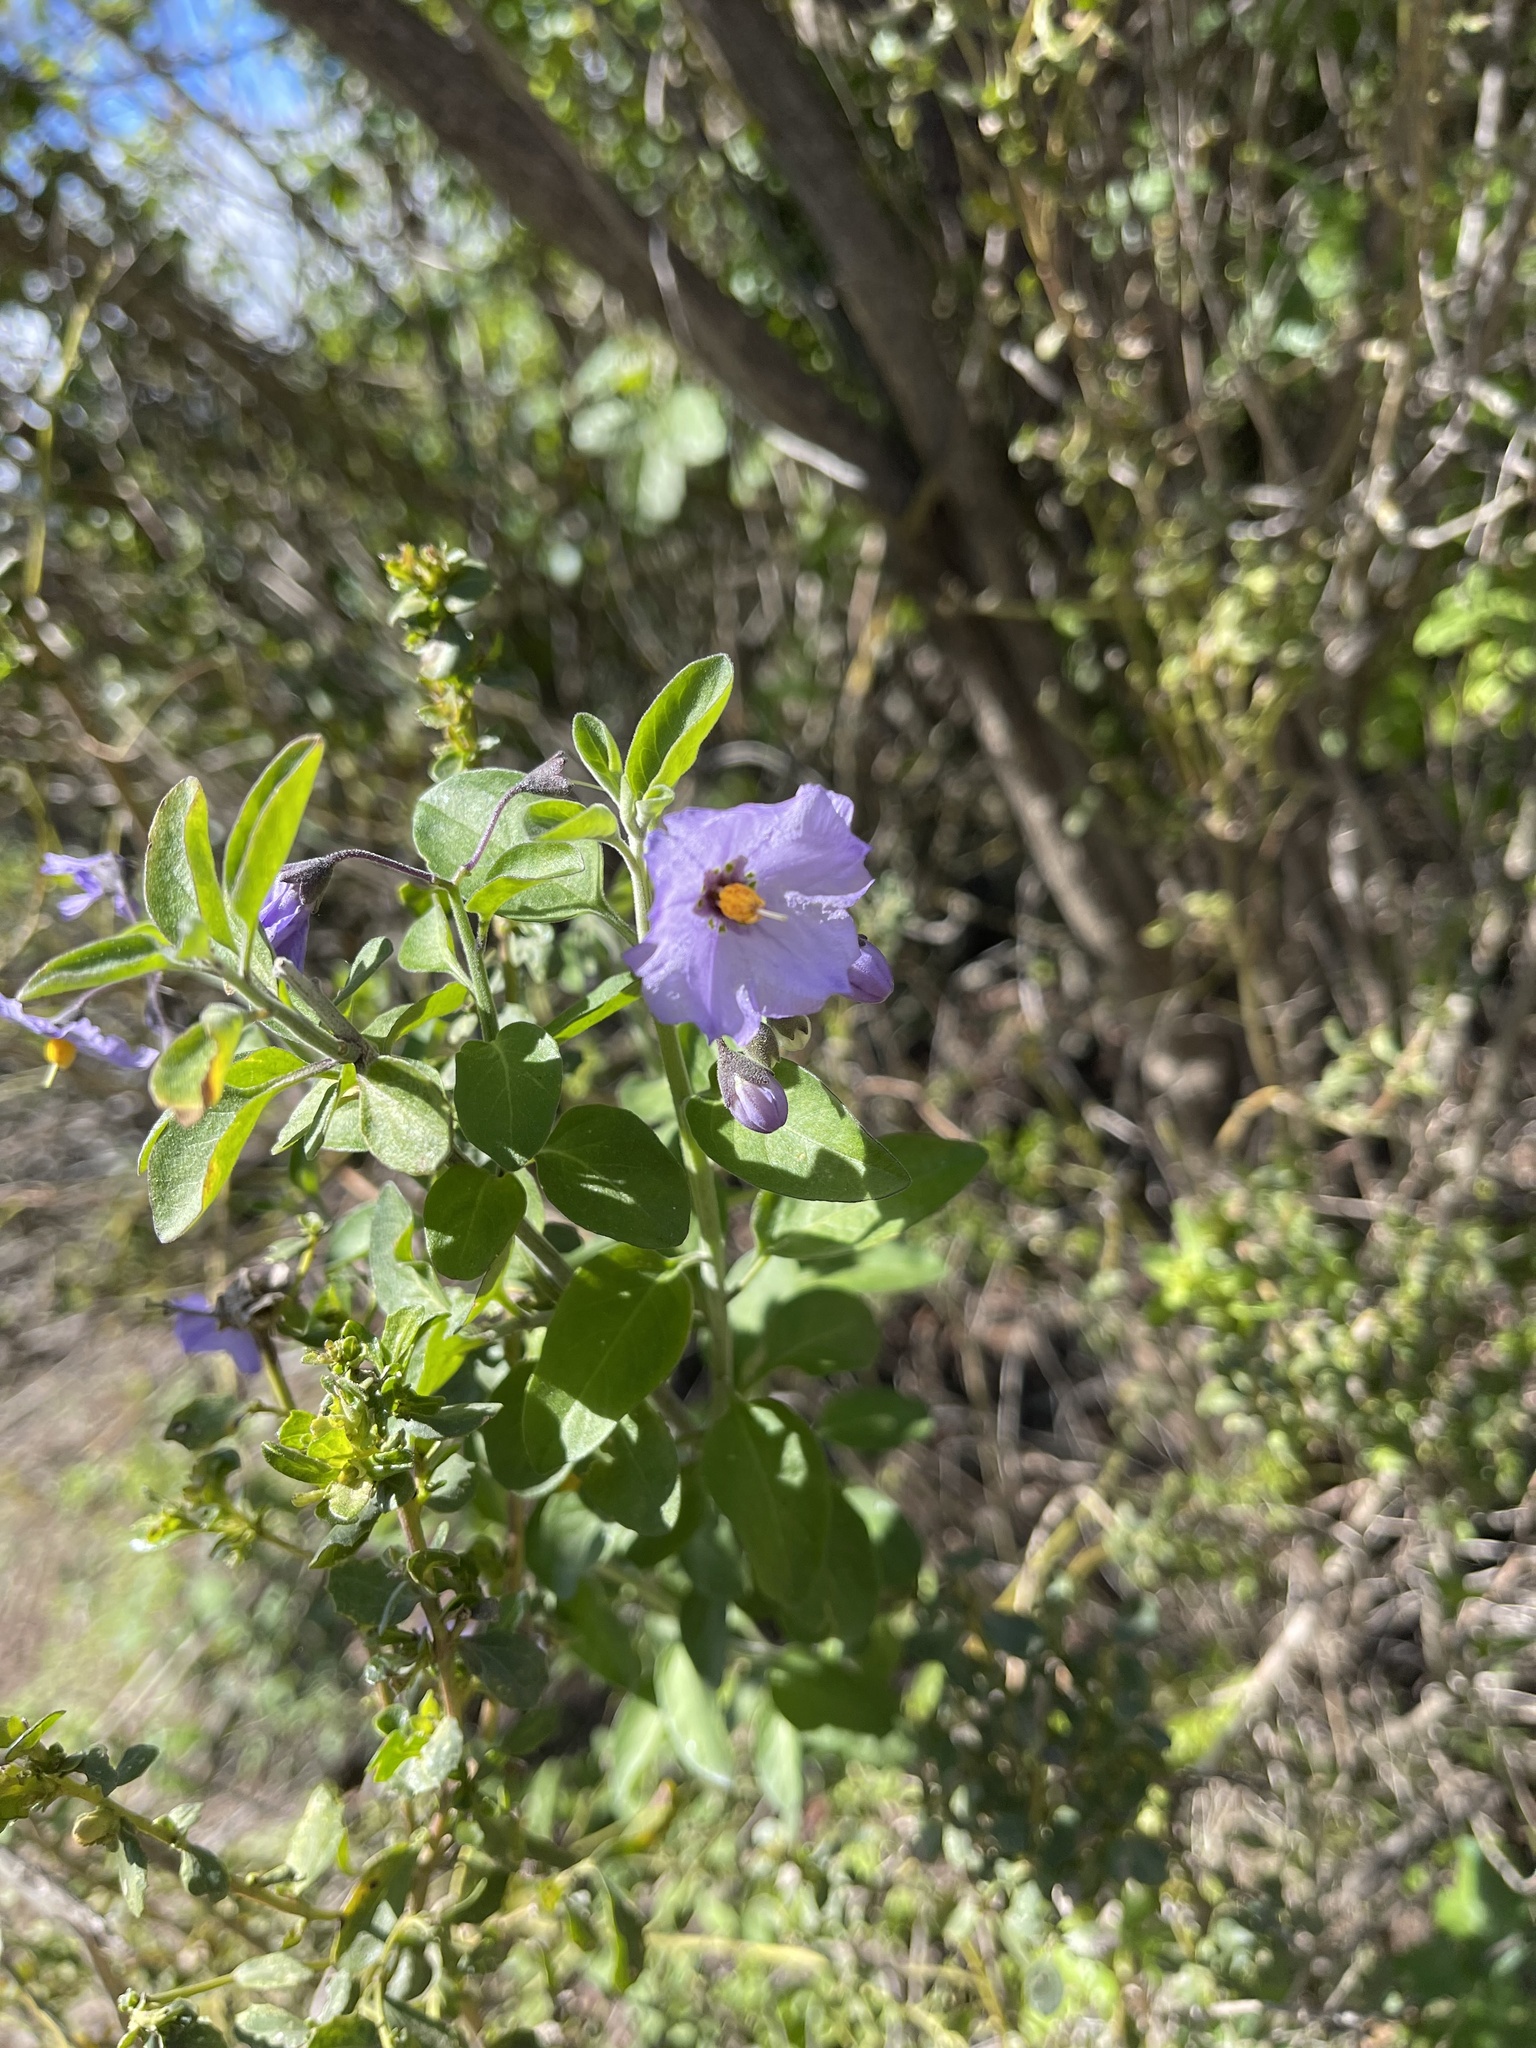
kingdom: Plantae
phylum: Tracheophyta
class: Magnoliopsida
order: Solanales
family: Solanaceae
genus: Solanum
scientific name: Solanum umbelliferum
